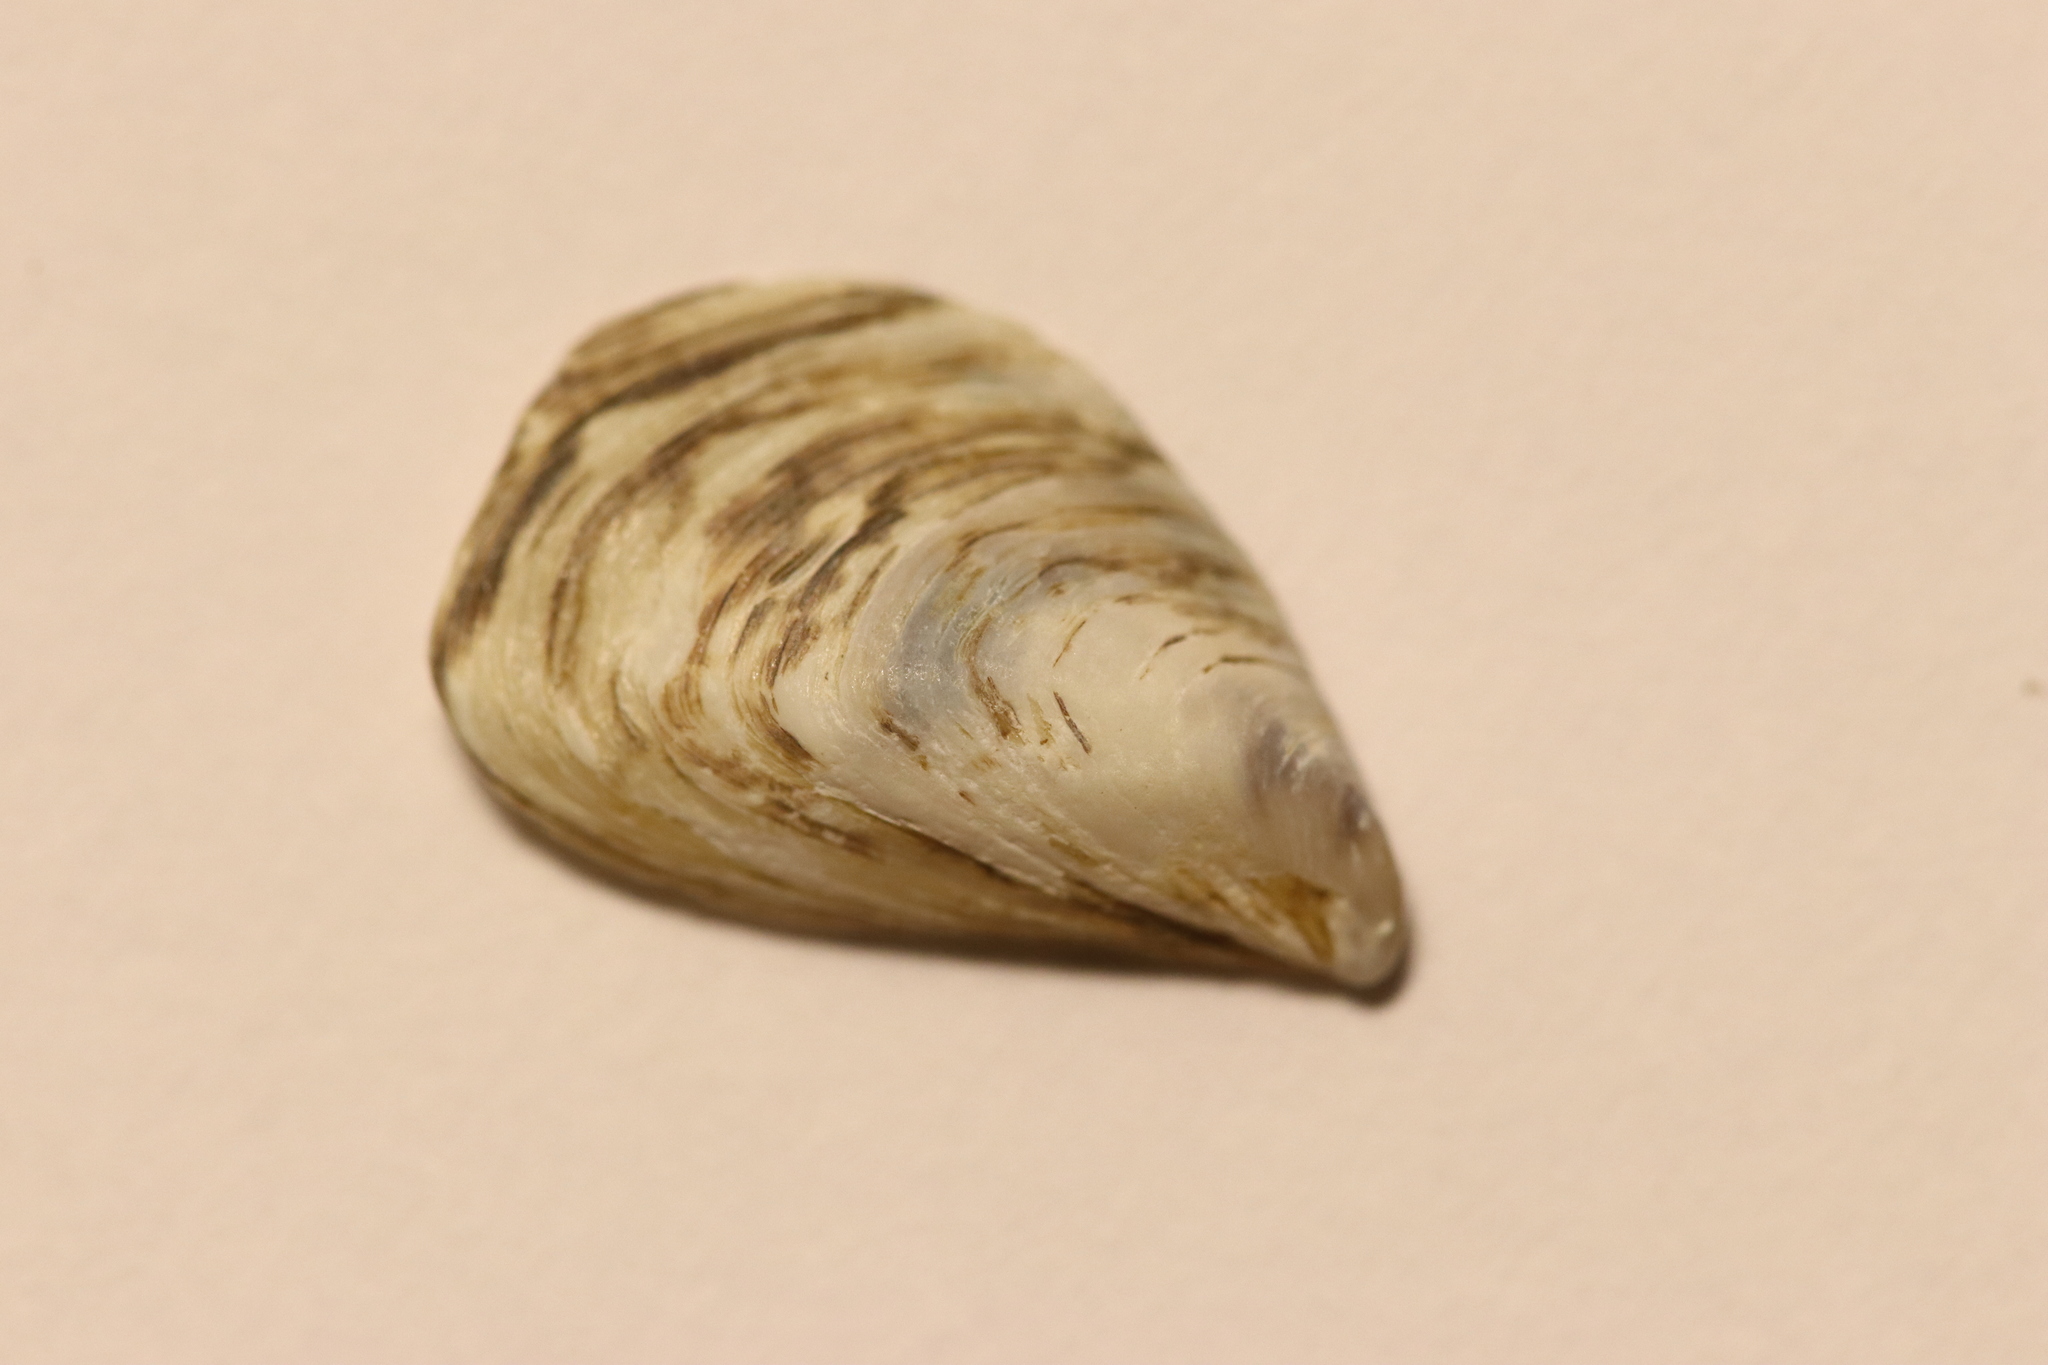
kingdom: Animalia
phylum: Mollusca
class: Bivalvia
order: Myida
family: Dreissenidae
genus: Dreissena
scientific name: Dreissena bugensis
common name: Quagga mussel
